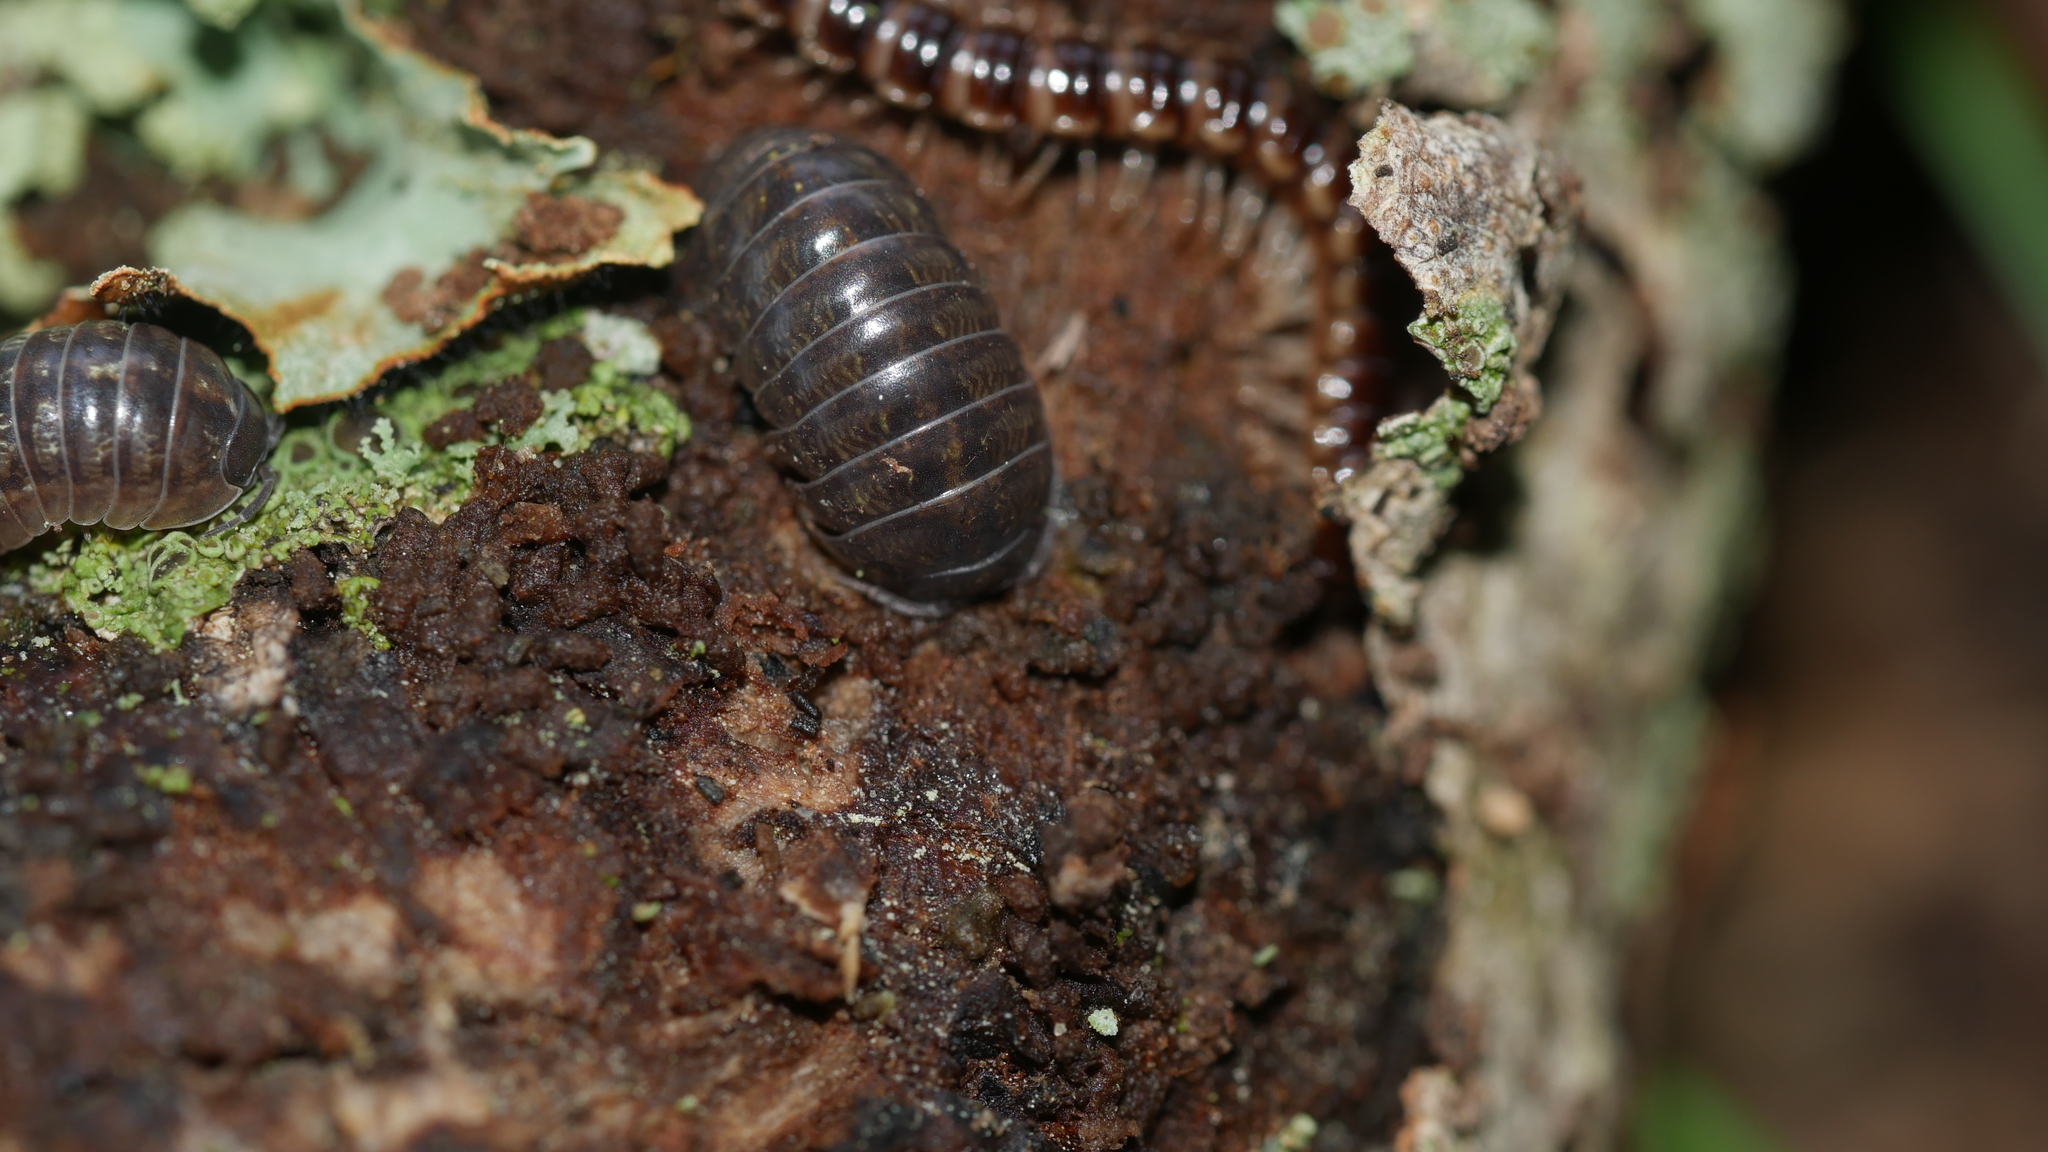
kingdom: Animalia
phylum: Arthropoda
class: Malacostraca
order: Isopoda
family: Armadillidiidae
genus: Armadillidium
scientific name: Armadillidium vulgare
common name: Common pill woodlouse
